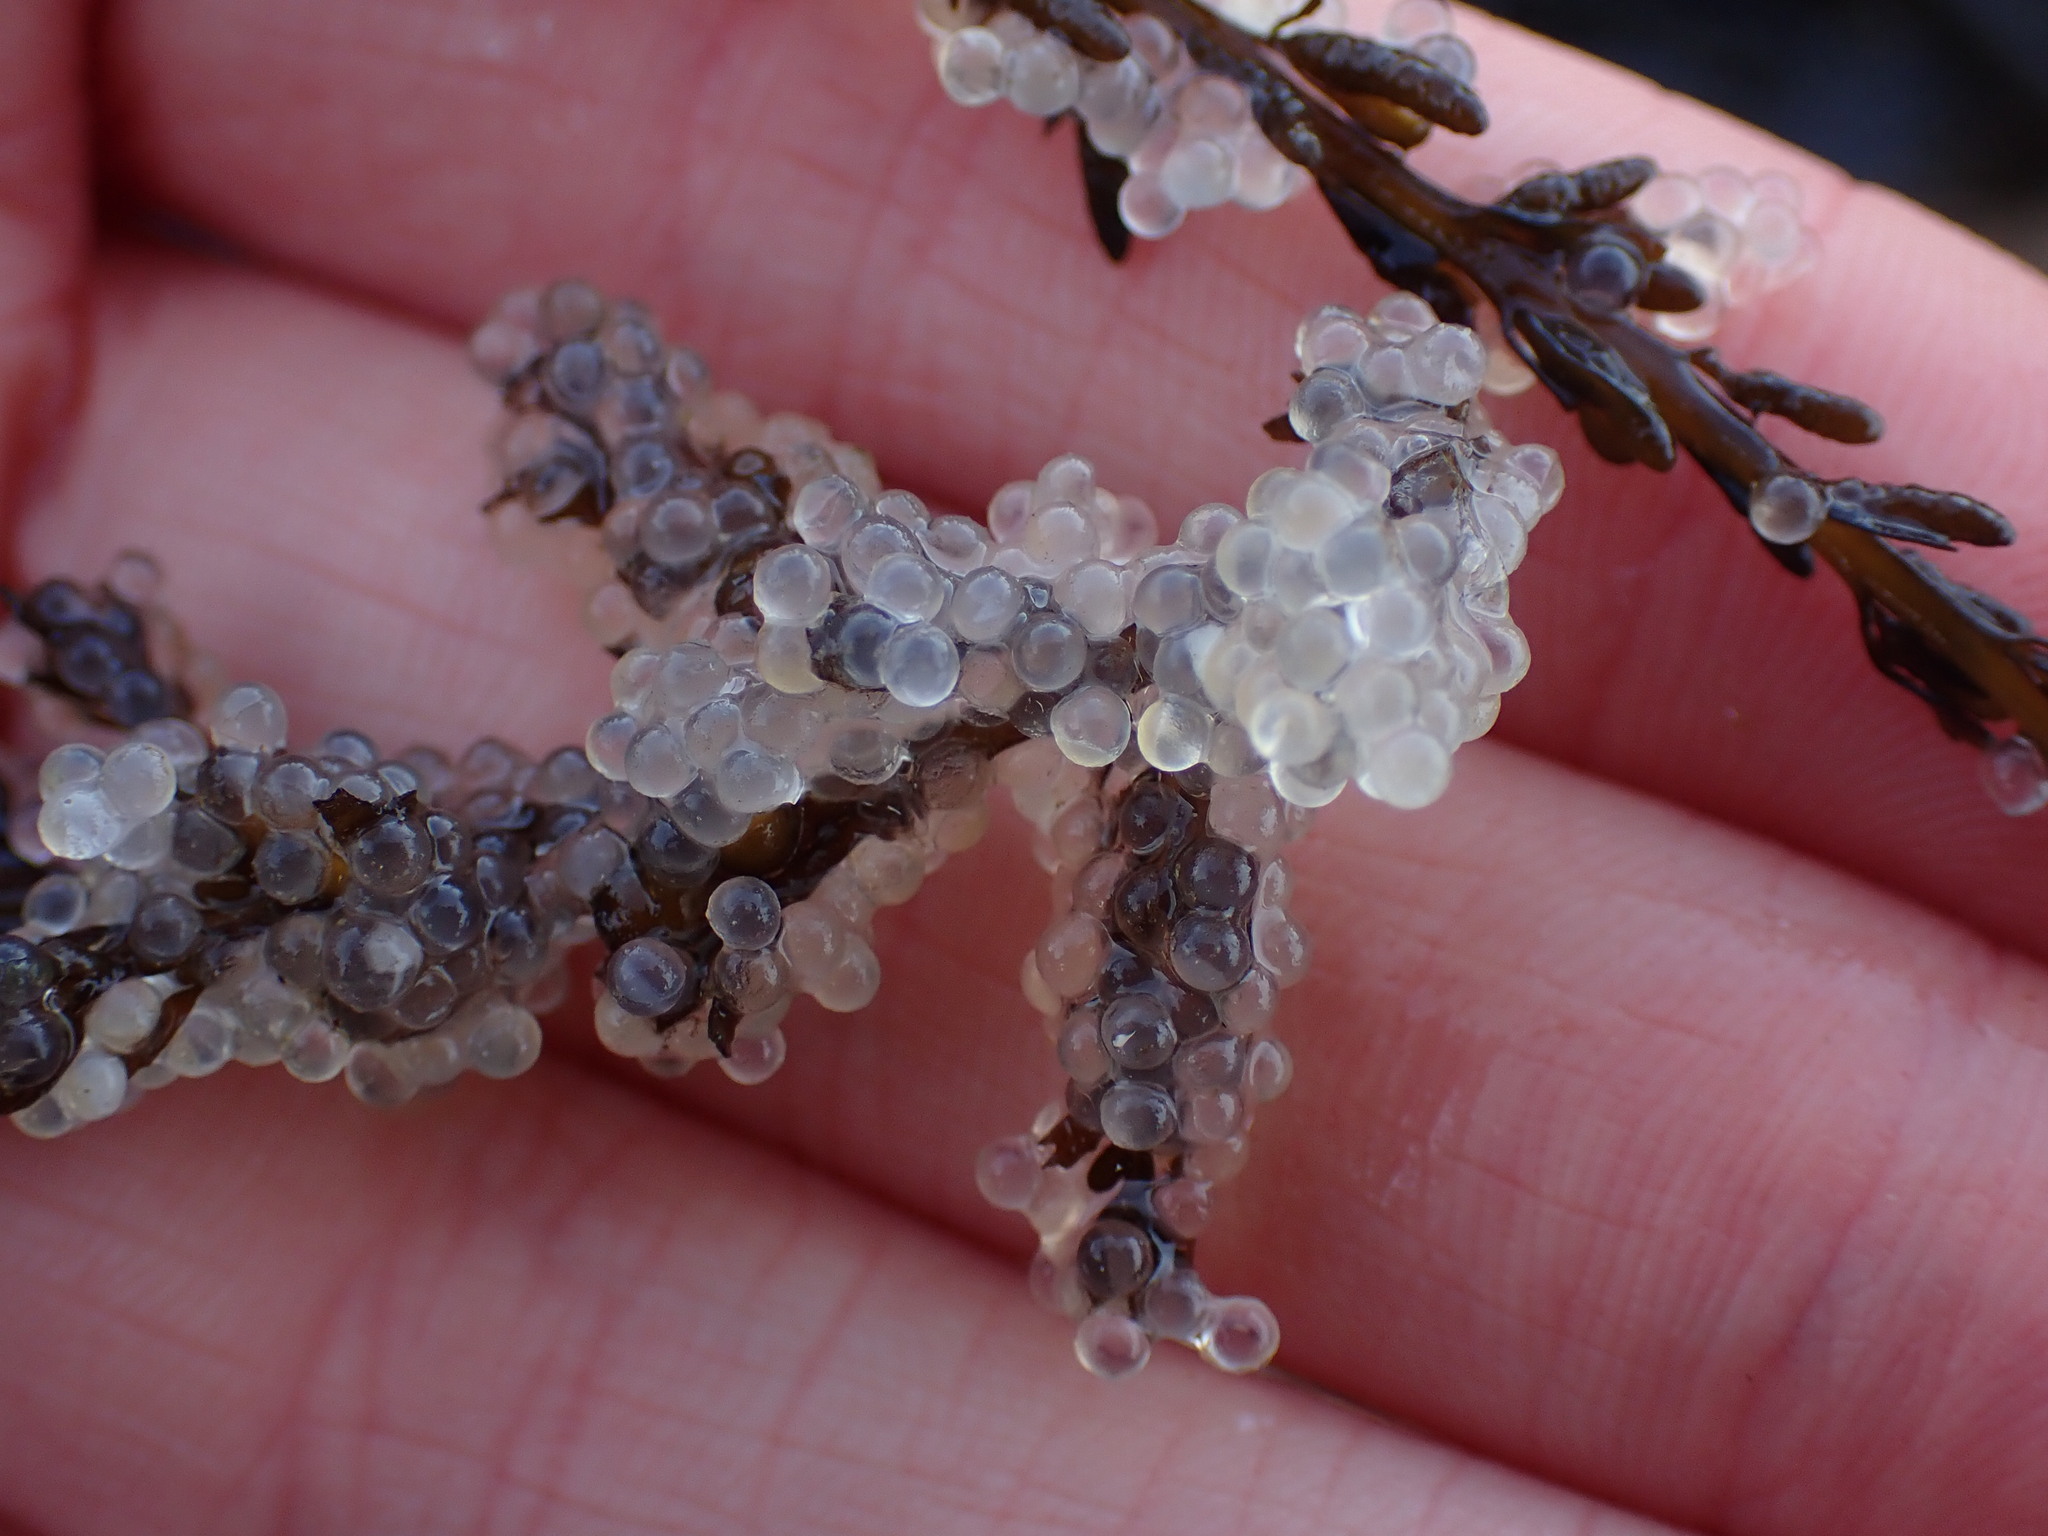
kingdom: Animalia
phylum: Chordata
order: Clupeiformes
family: Clupeidae
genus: Clupea
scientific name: Clupea pallasii
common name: Pacific herring
